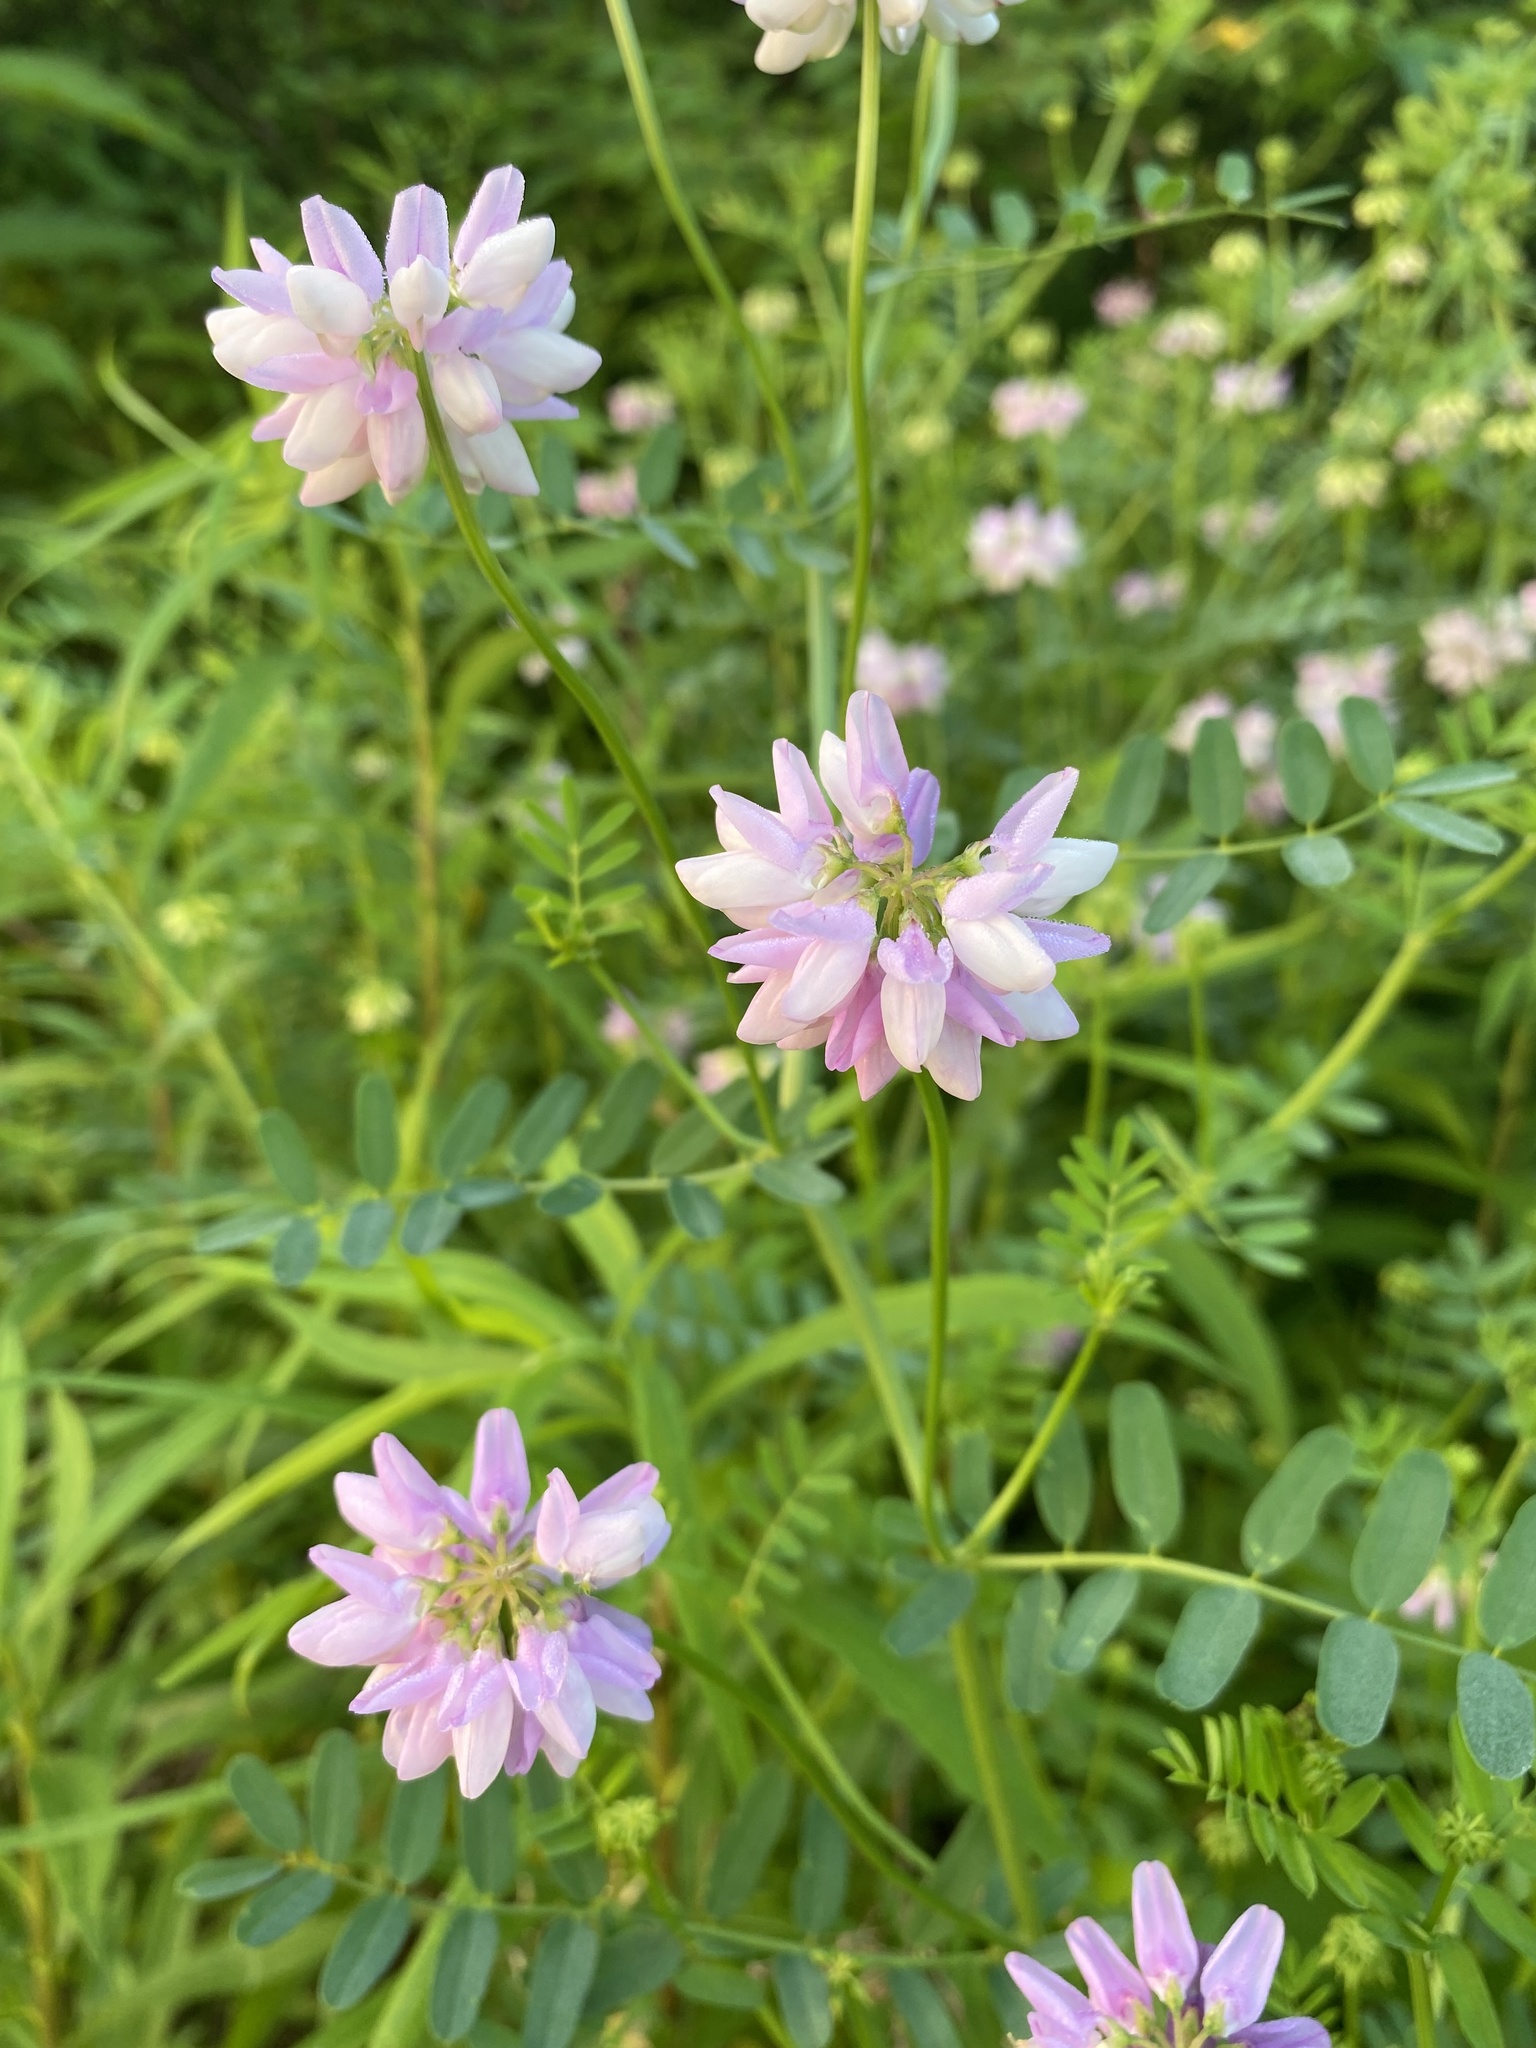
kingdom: Plantae
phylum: Tracheophyta
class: Magnoliopsida
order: Fabales
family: Fabaceae
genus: Coronilla
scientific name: Coronilla varia
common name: Crownvetch
